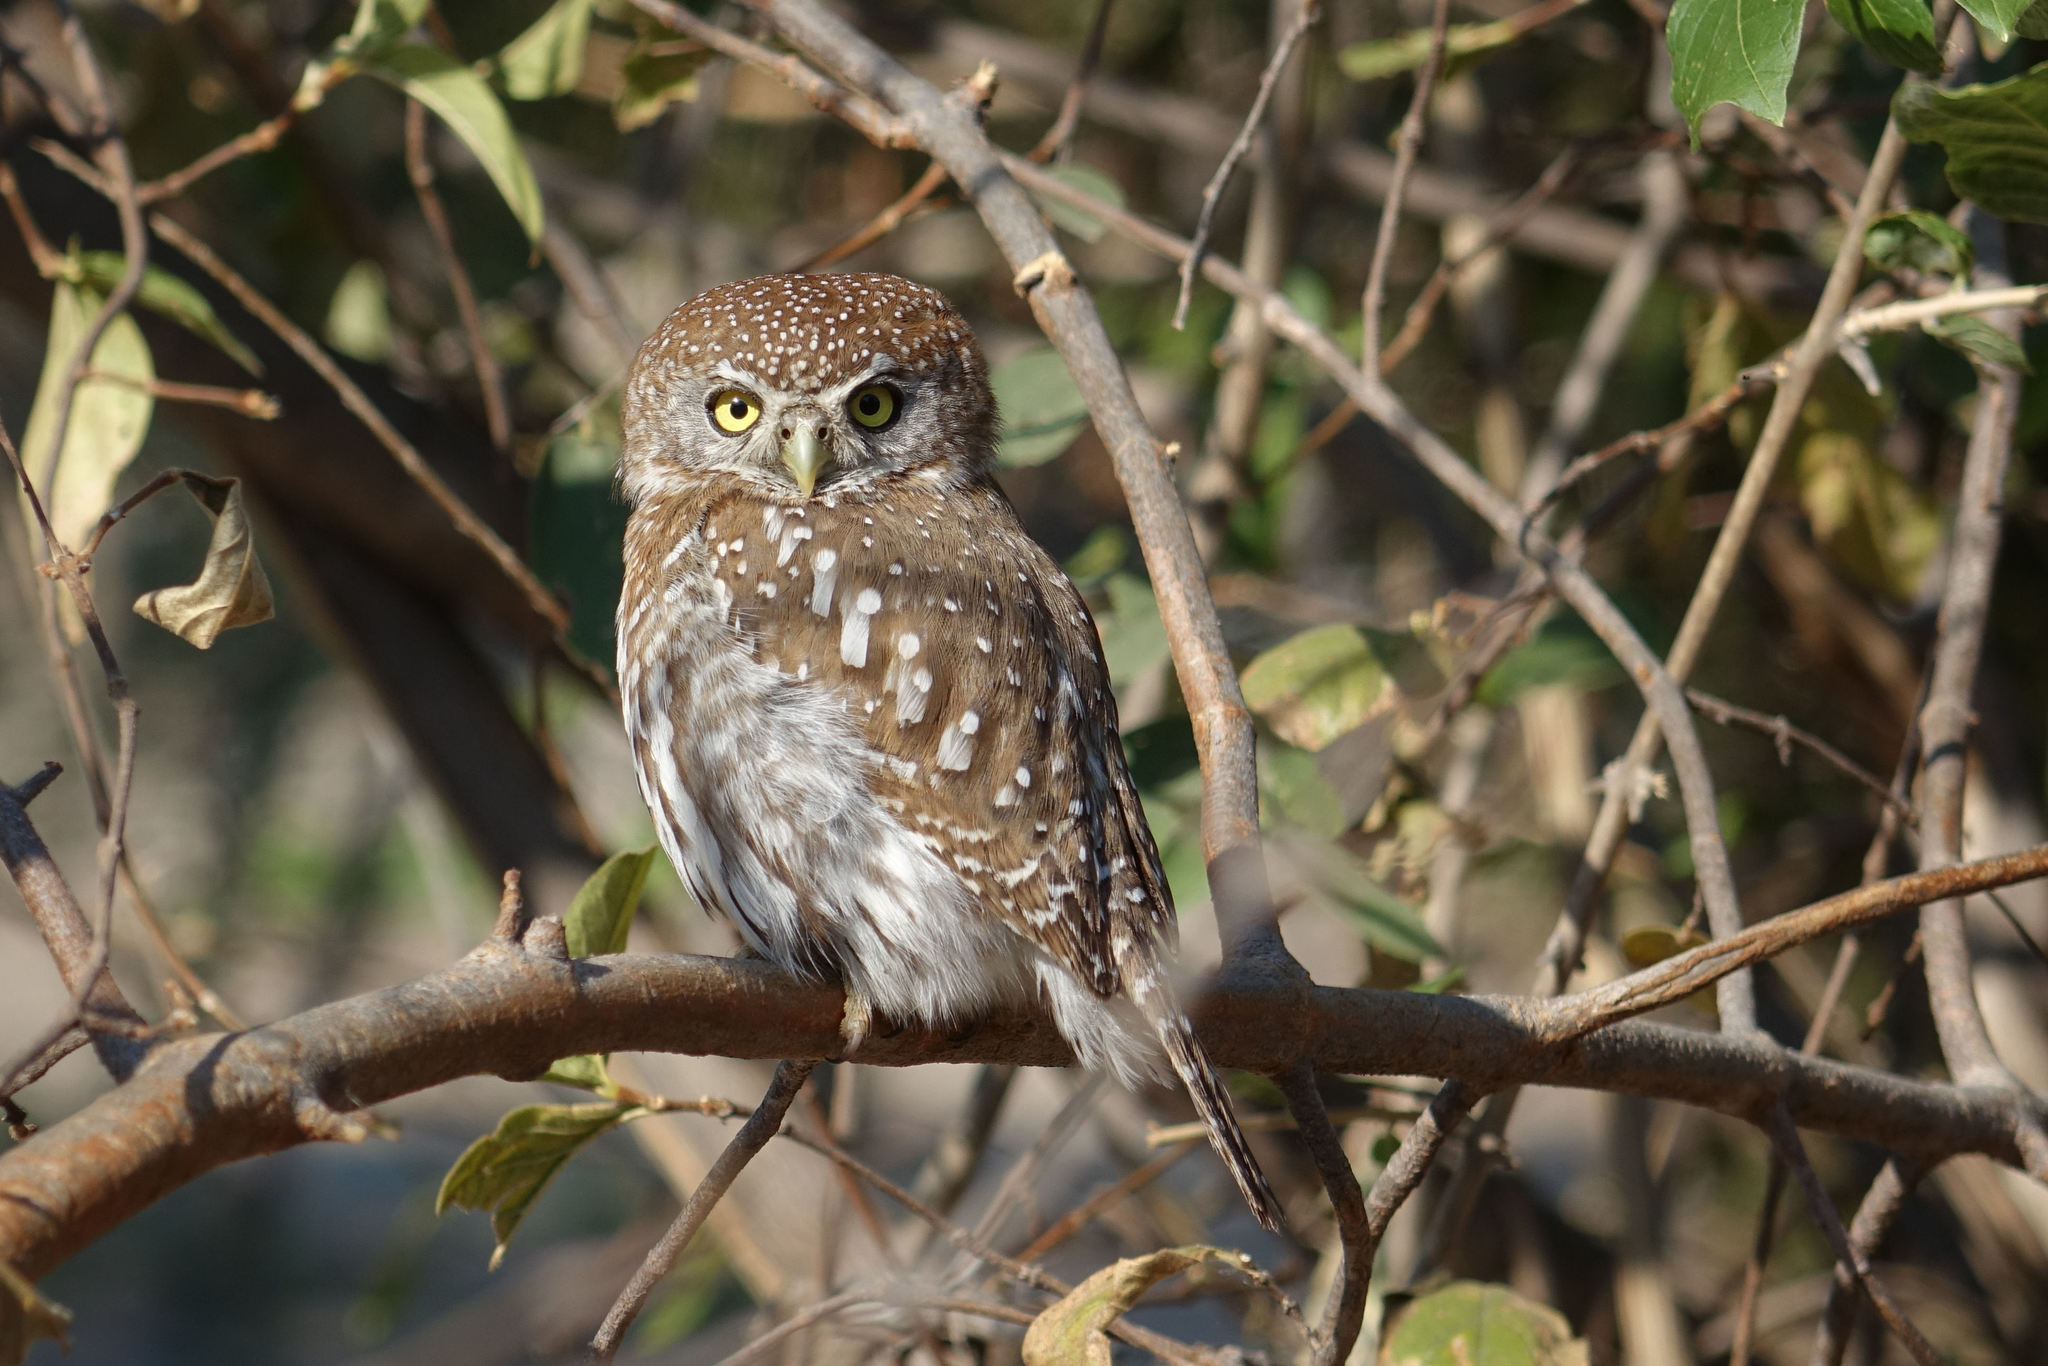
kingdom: Animalia
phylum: Chordata
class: Aves
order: Strigiformes
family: Strigidae
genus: Glaucidium
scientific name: Glaucidium perlatum
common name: Pearl-spotted owlet
